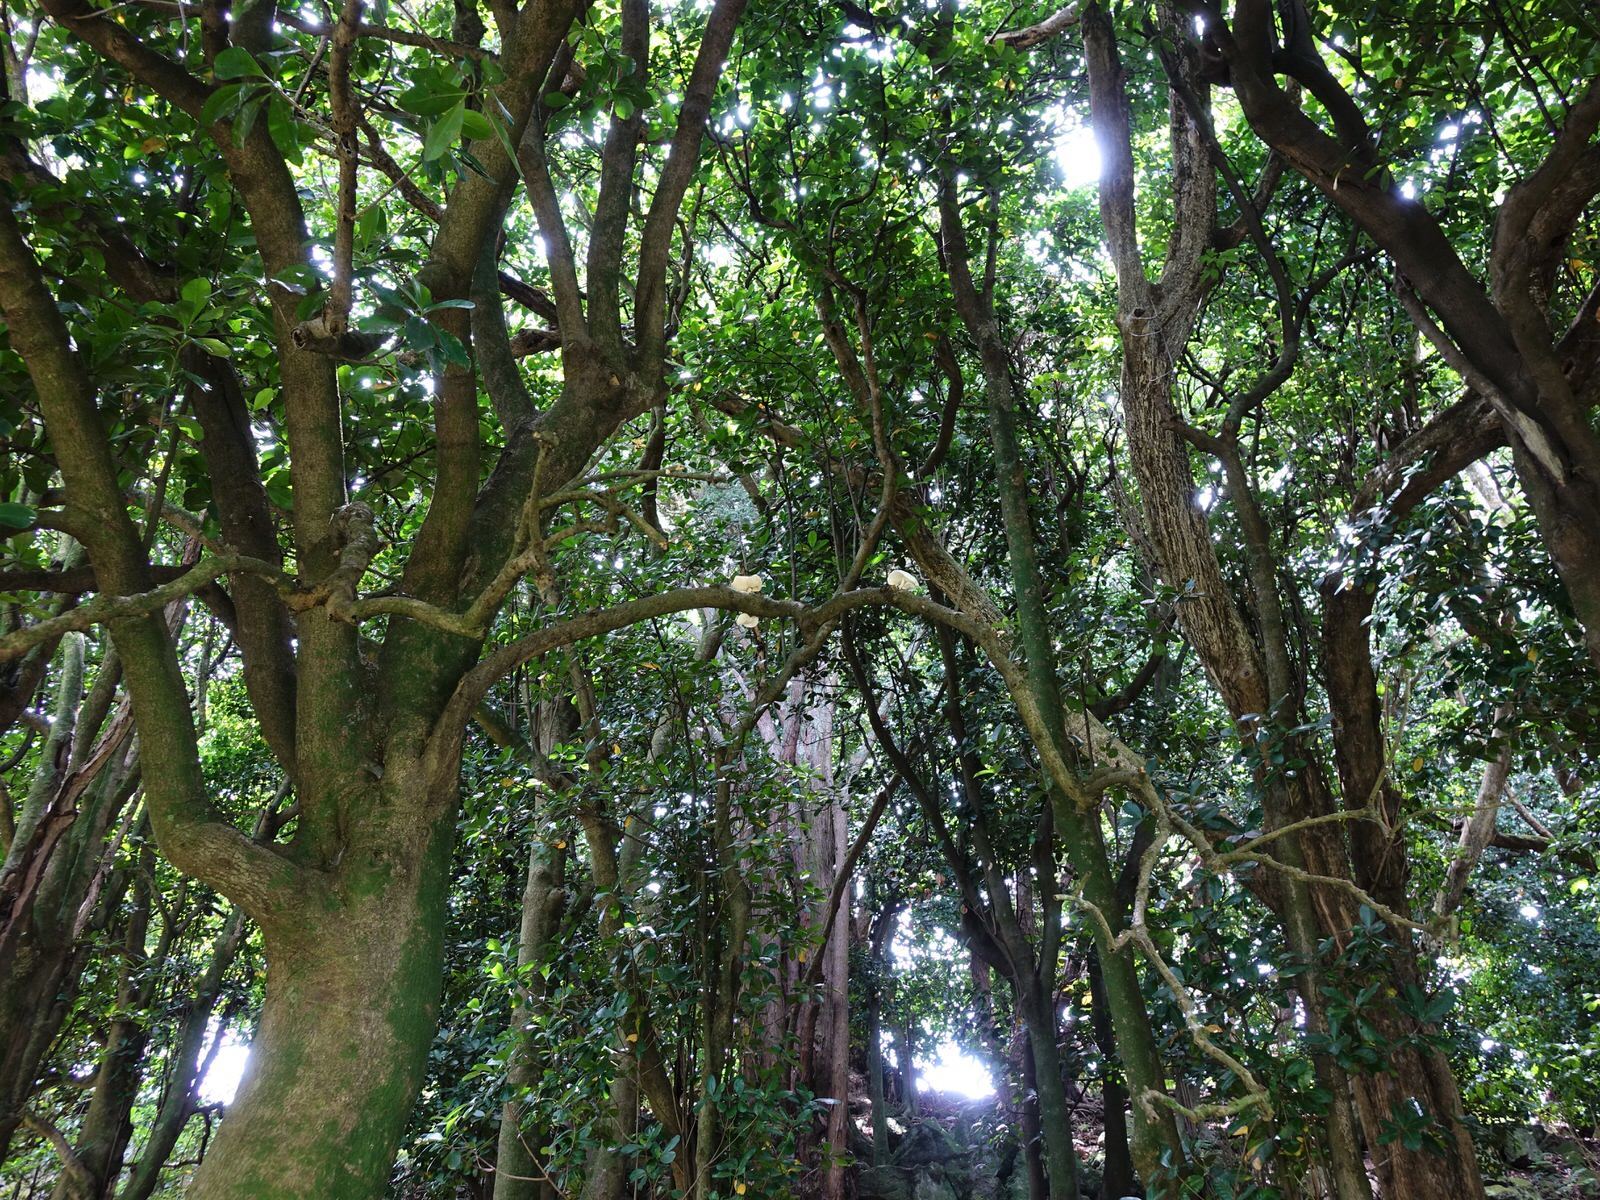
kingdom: Fungi
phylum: Basidiomycota
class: Agaricomycetes
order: Agaricales
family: Physalacriaceae
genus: Oudemansiella
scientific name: Oudemansiella australis
